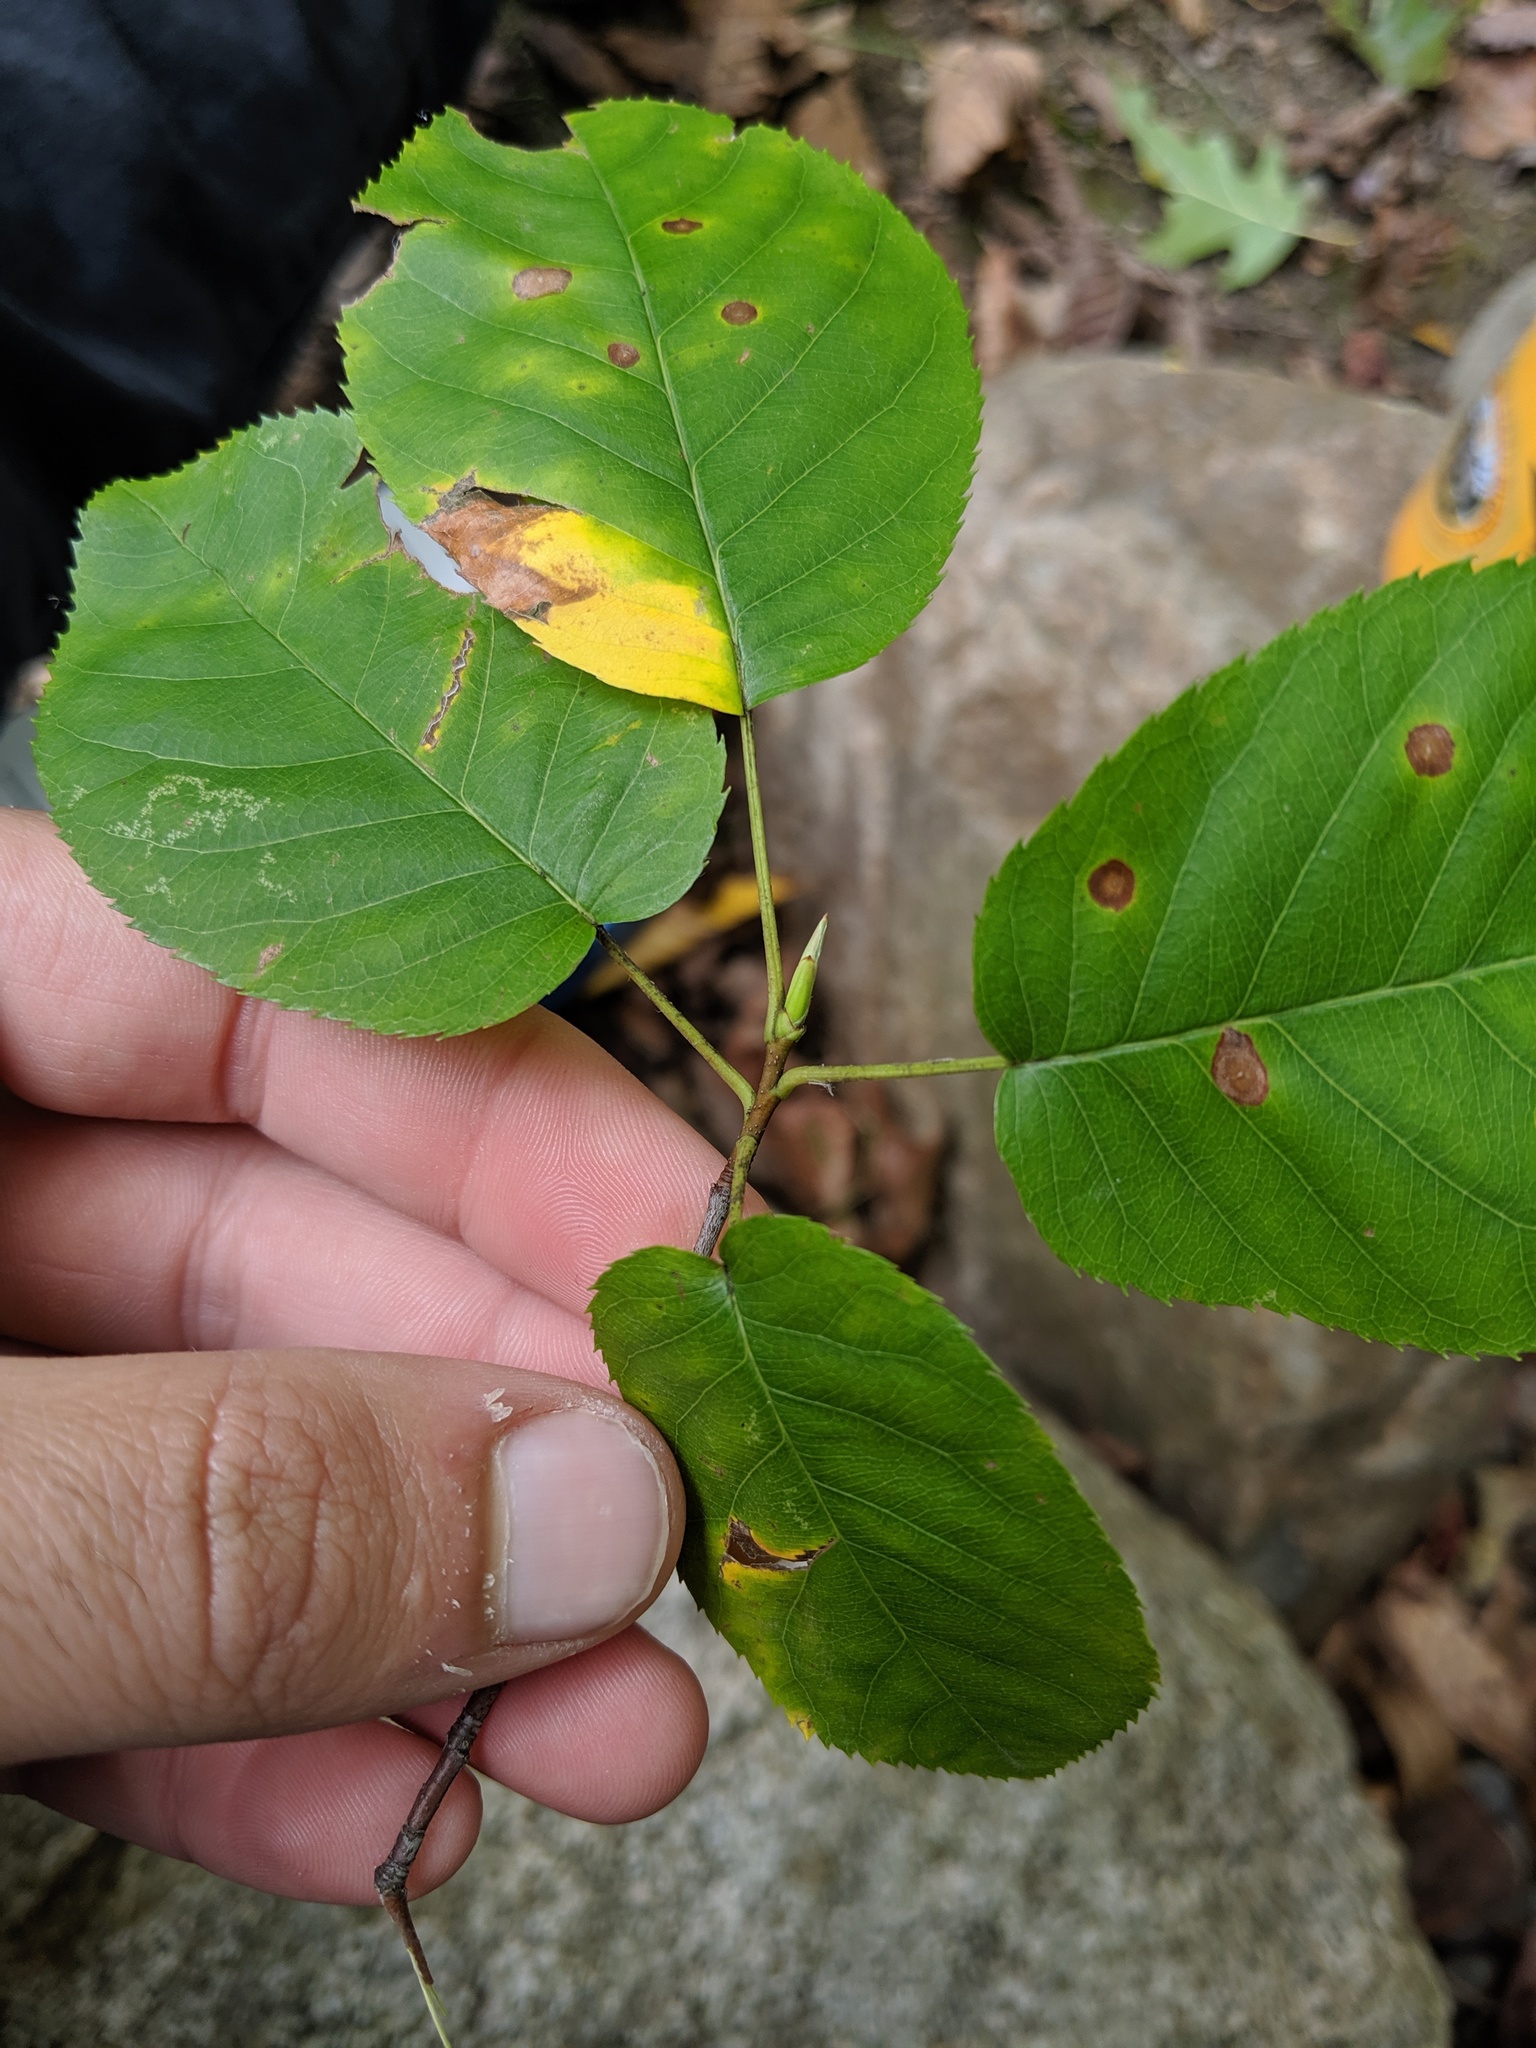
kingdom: Plantae
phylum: Tracheophyta
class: Magnoliopsida
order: Rosales
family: Rosaceae
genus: Amelanchier
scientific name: Amelanchier arborea
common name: Downy serviceberry
